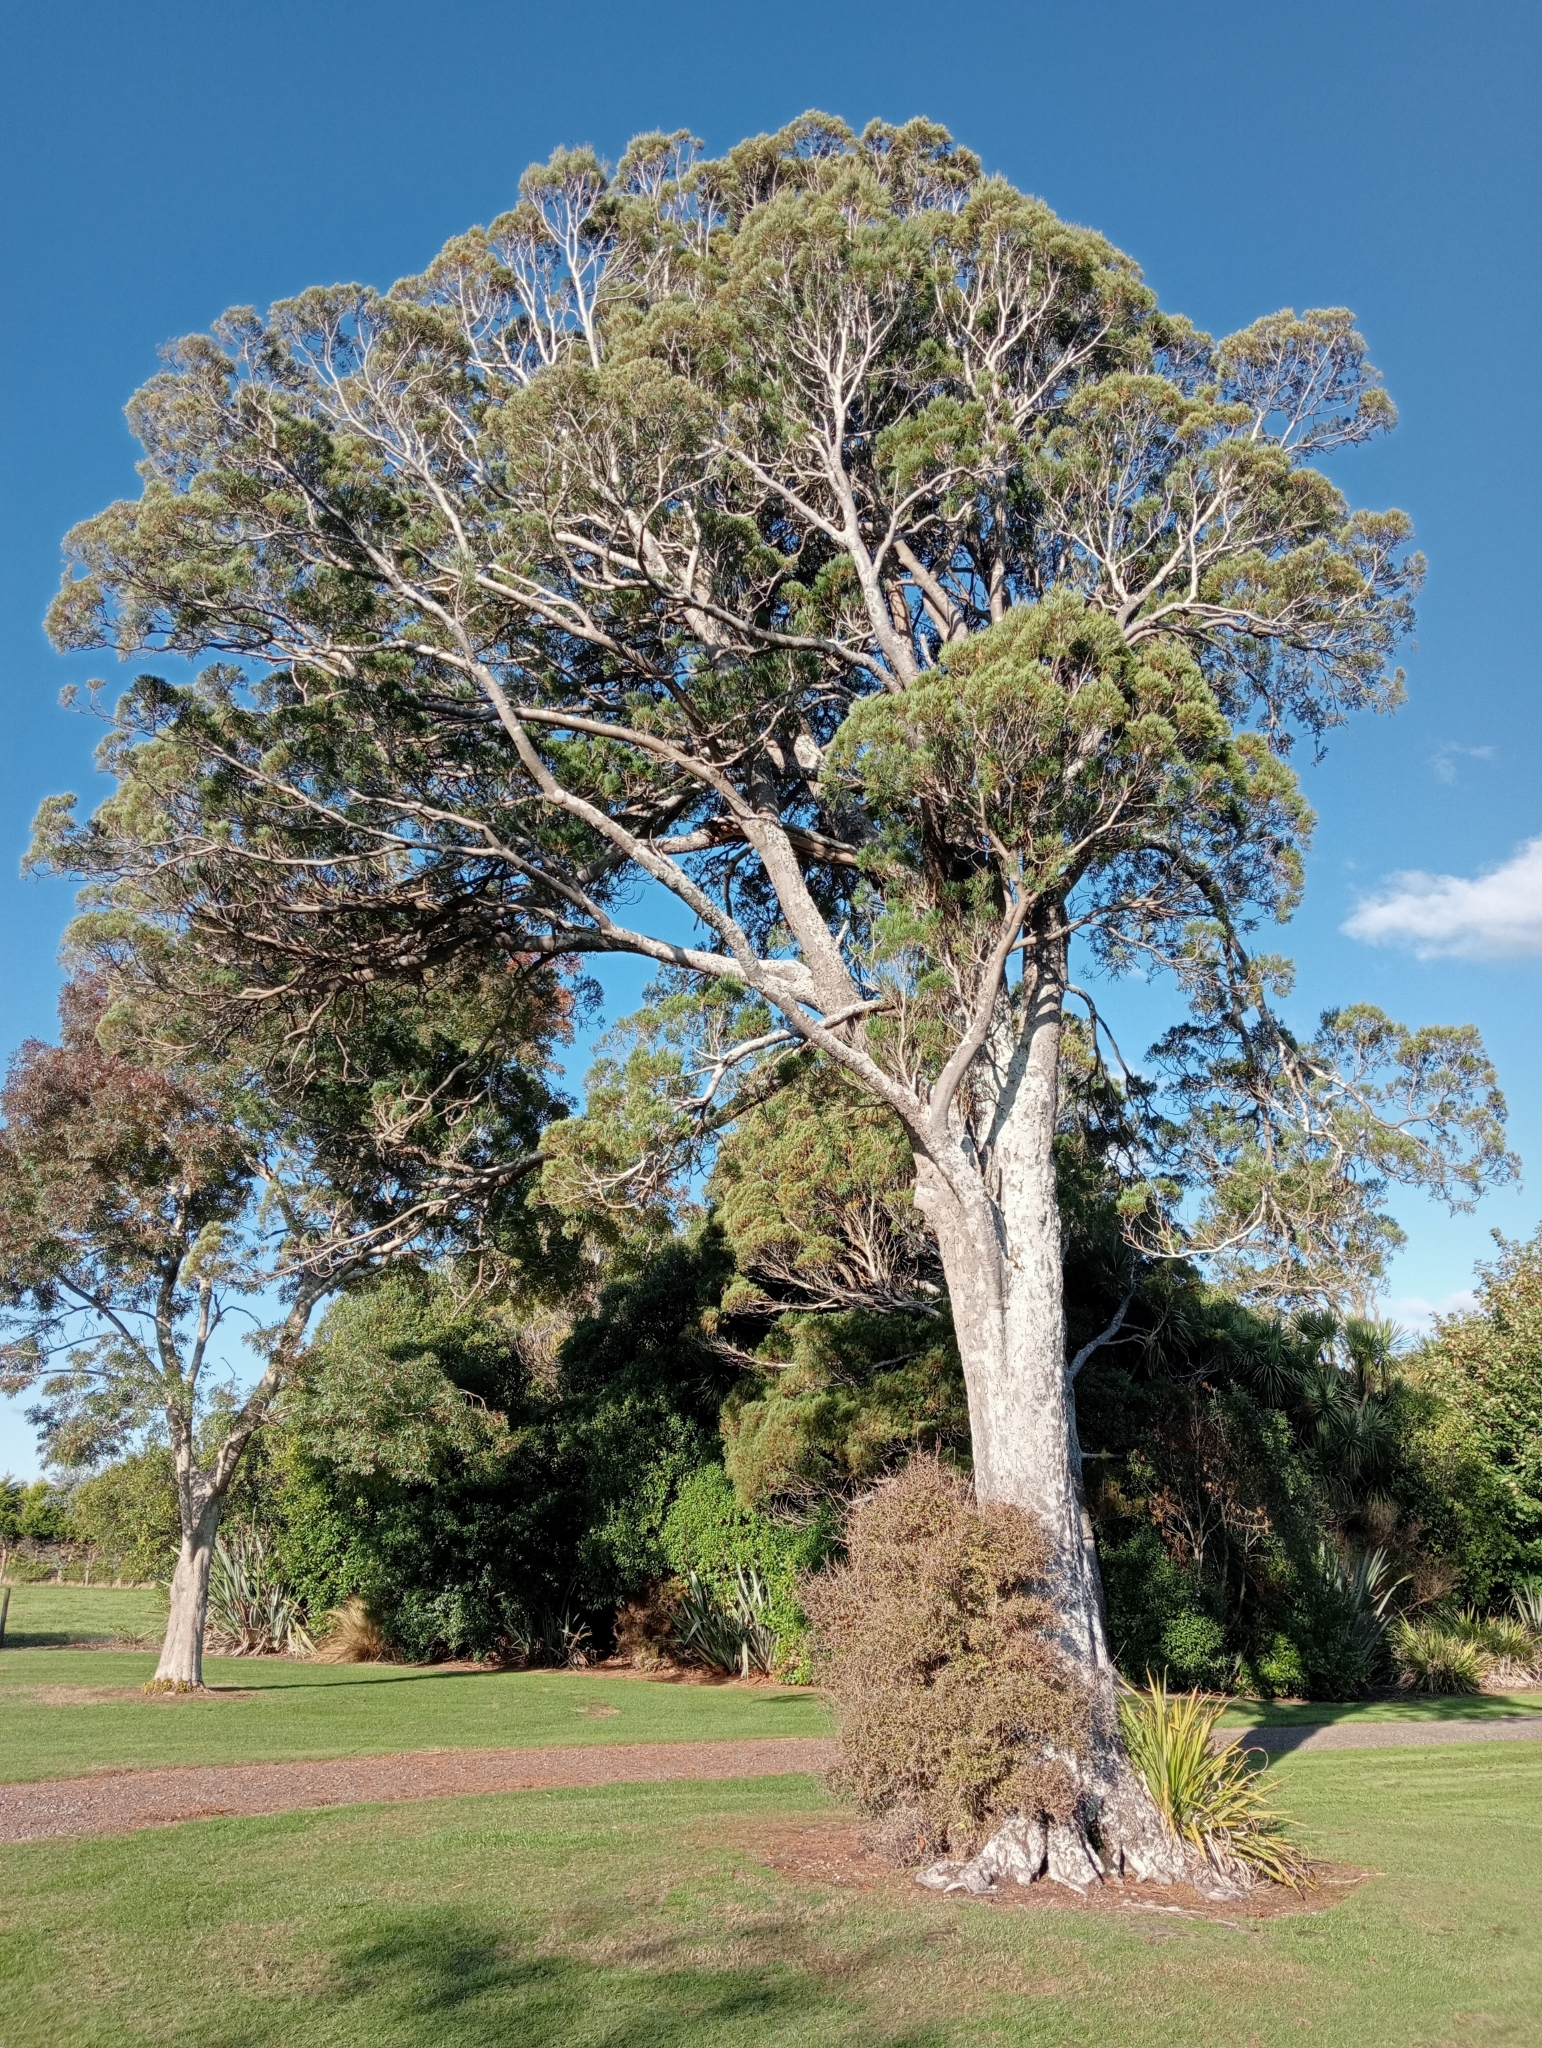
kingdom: Plantae
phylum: Tracheophyta
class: Pinopsida
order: Pinales
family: Podocarpaceae
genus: Dacrycarpus
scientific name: Dacrycarpus dacrydioides
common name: White pine
